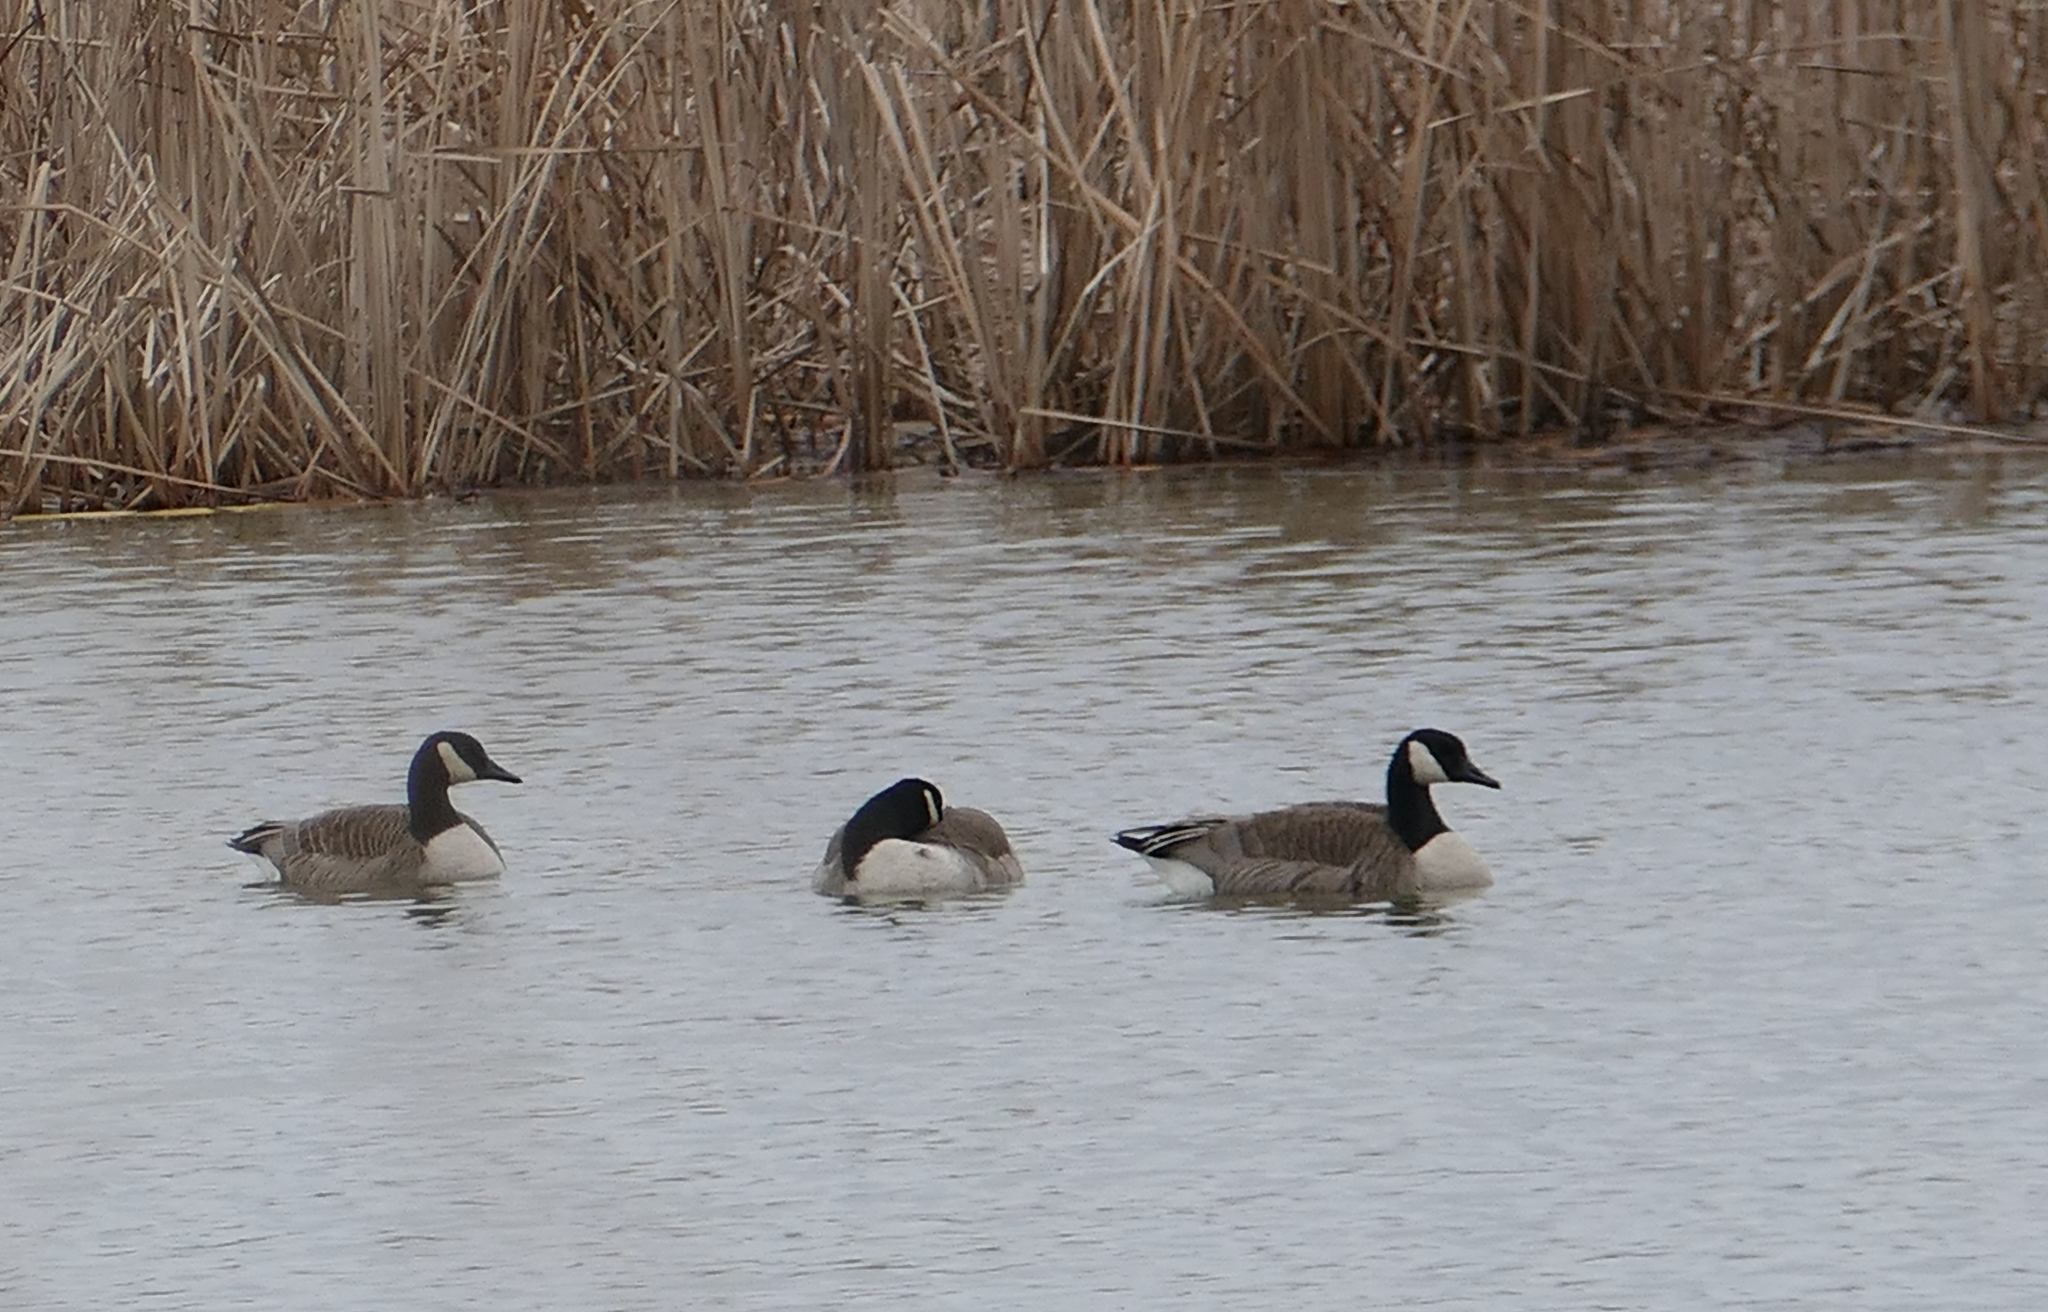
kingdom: Animalia
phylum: Chordata
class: Aves
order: Anseriformes
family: Anatidae
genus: Branta
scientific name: Branta canadensis
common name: Canada goose
